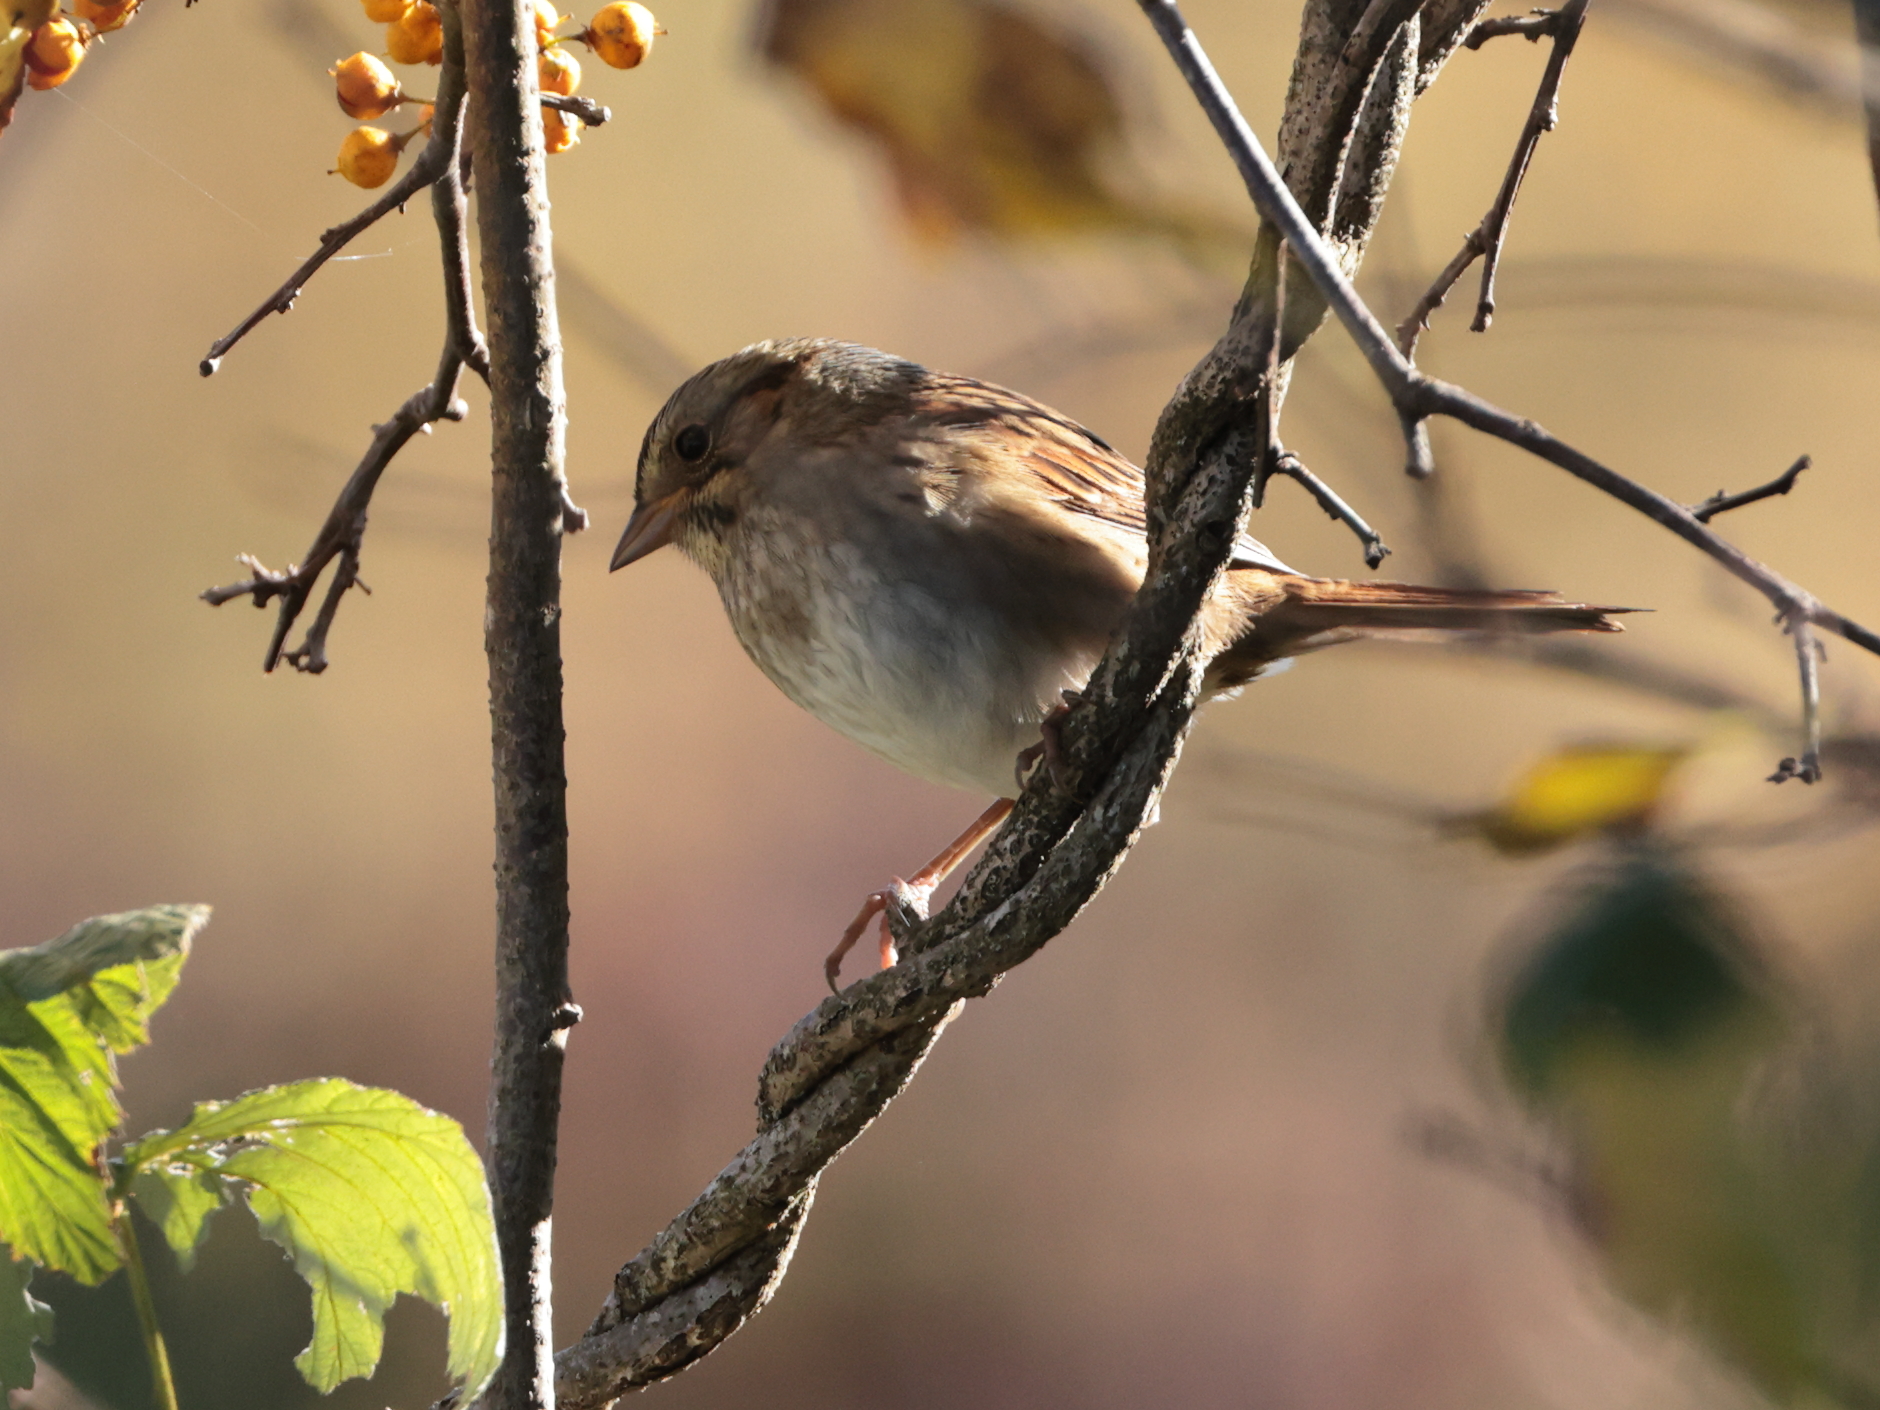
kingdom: Animalia
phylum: Chordata
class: Aves
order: Passeriformes
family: Passerellidae
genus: Melospiza
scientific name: Melospiza georgiana
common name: Swamp sparrow
